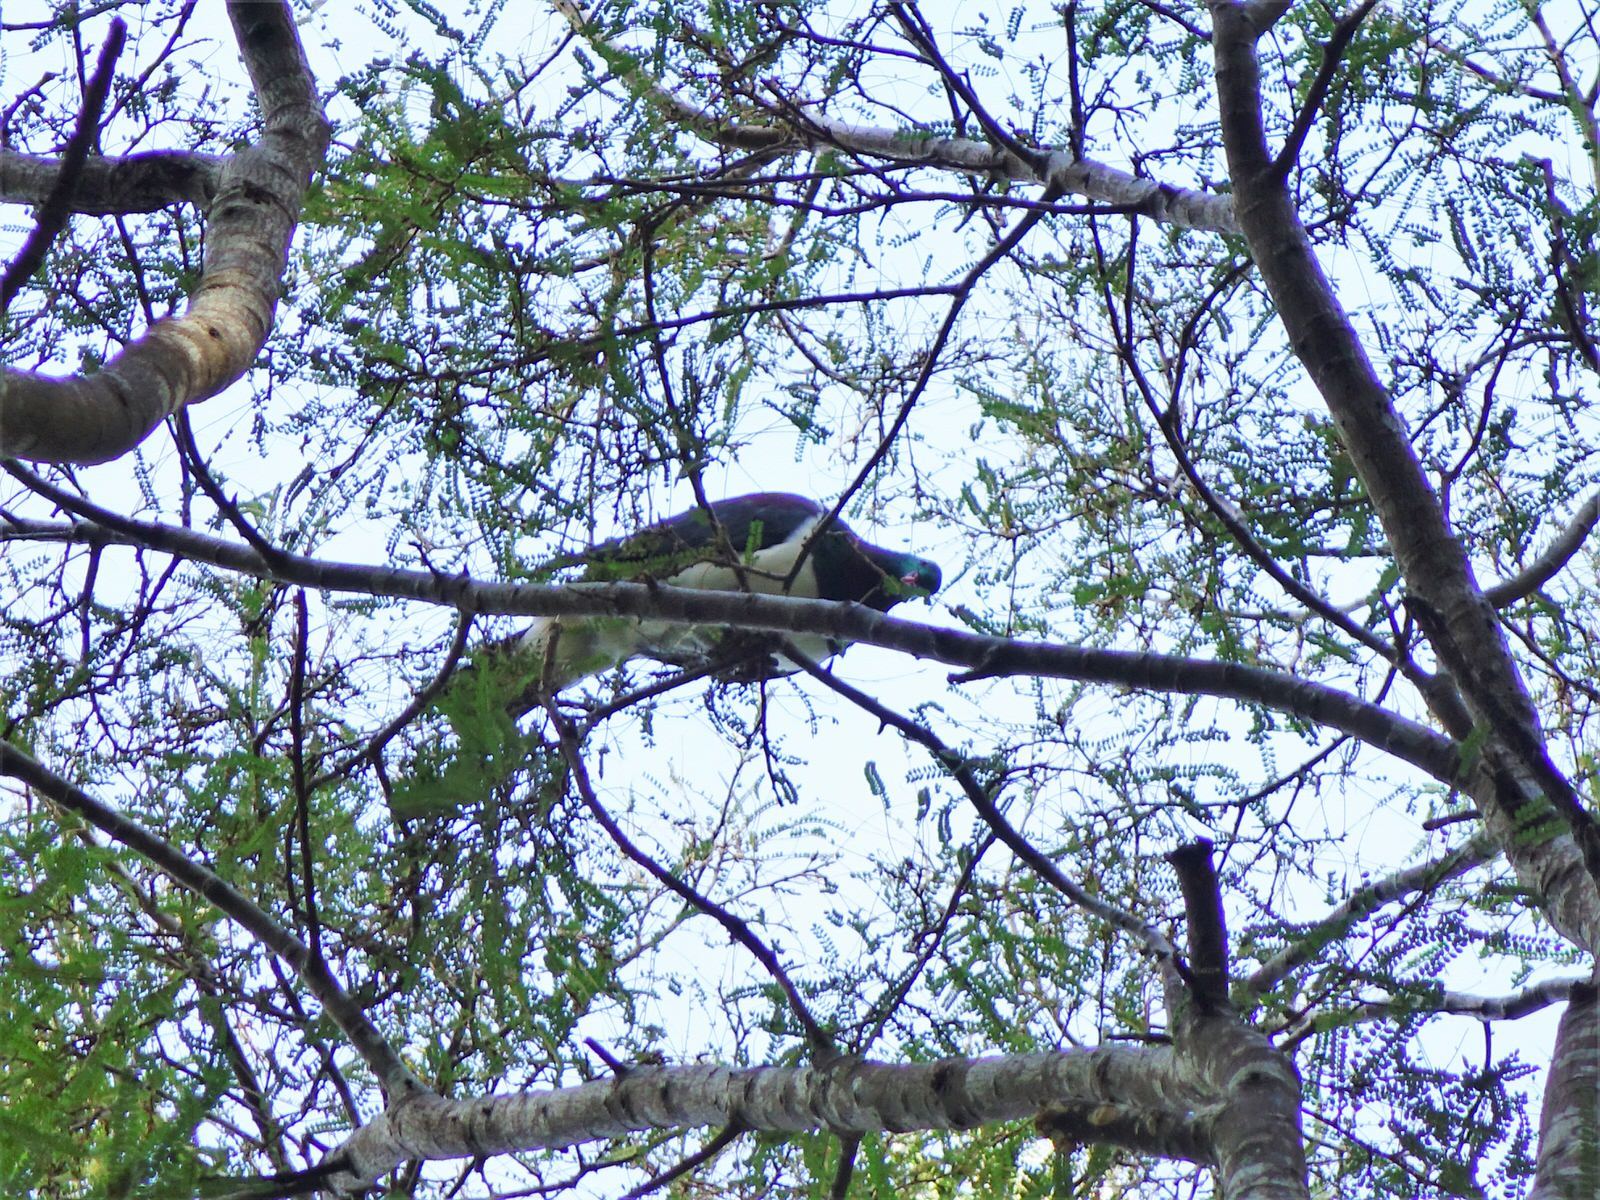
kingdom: Animalia
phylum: Chordata
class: Aves
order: Columbiformes
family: Columbidae
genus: Hemiphaga
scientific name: Hemiphaga novaeseelandiae
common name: New zealand pigeon
